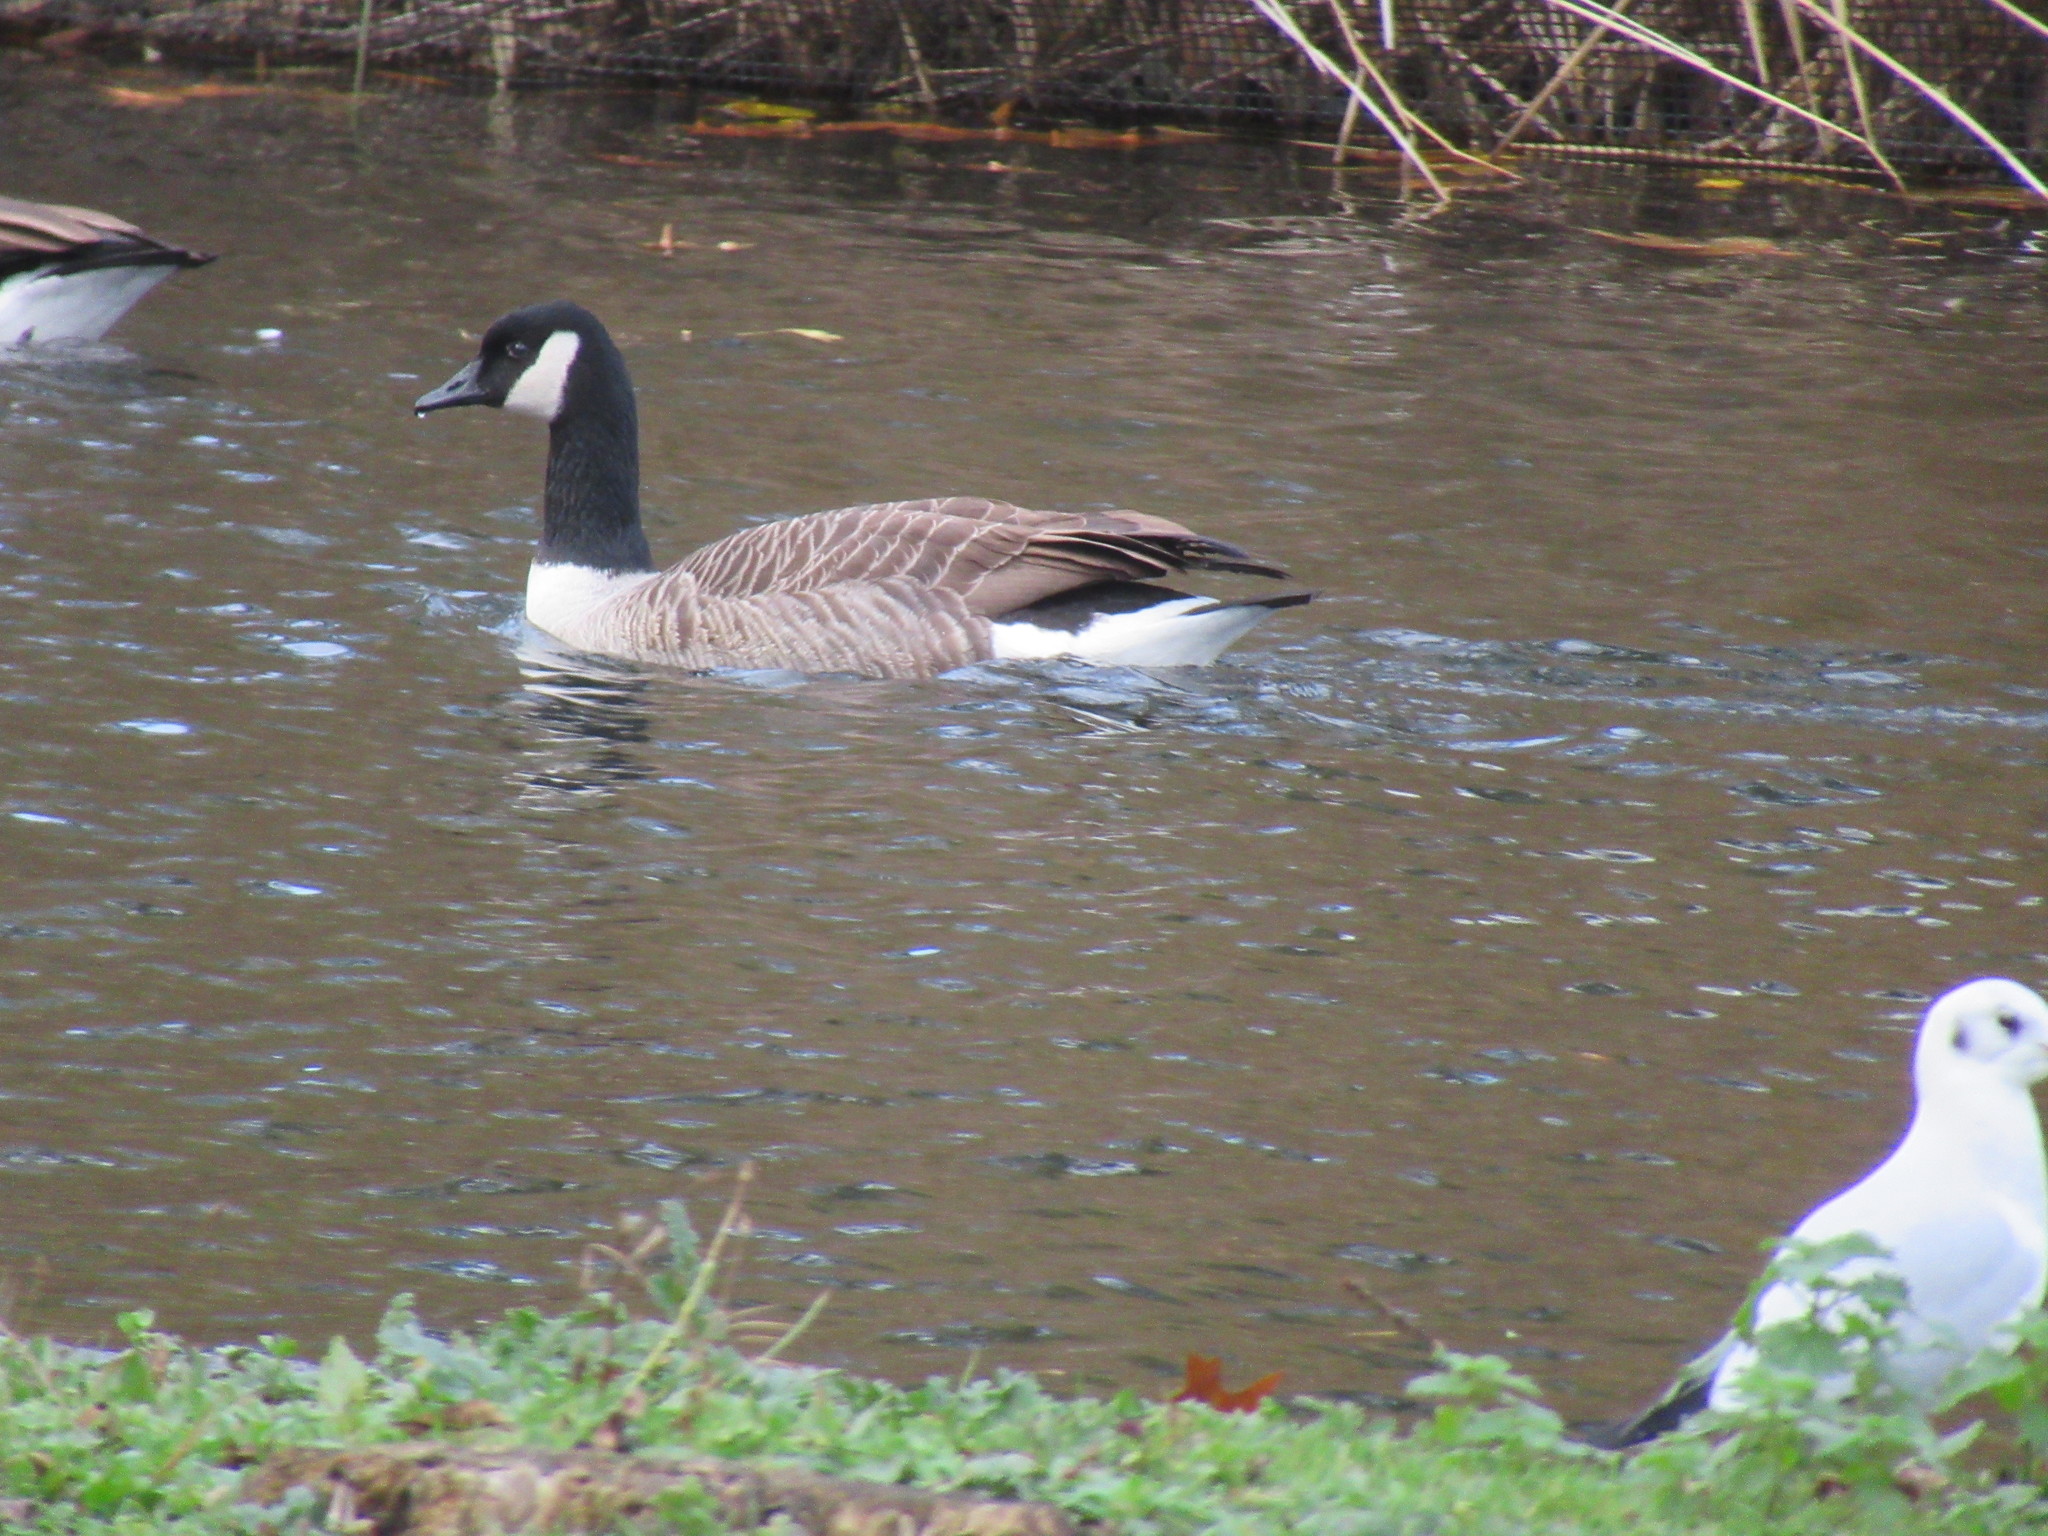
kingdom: Animalia
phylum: Chordata
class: Aves
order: Anseriformes
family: Anatidae
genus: Branta
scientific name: Branta canadensis
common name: Canada goose
